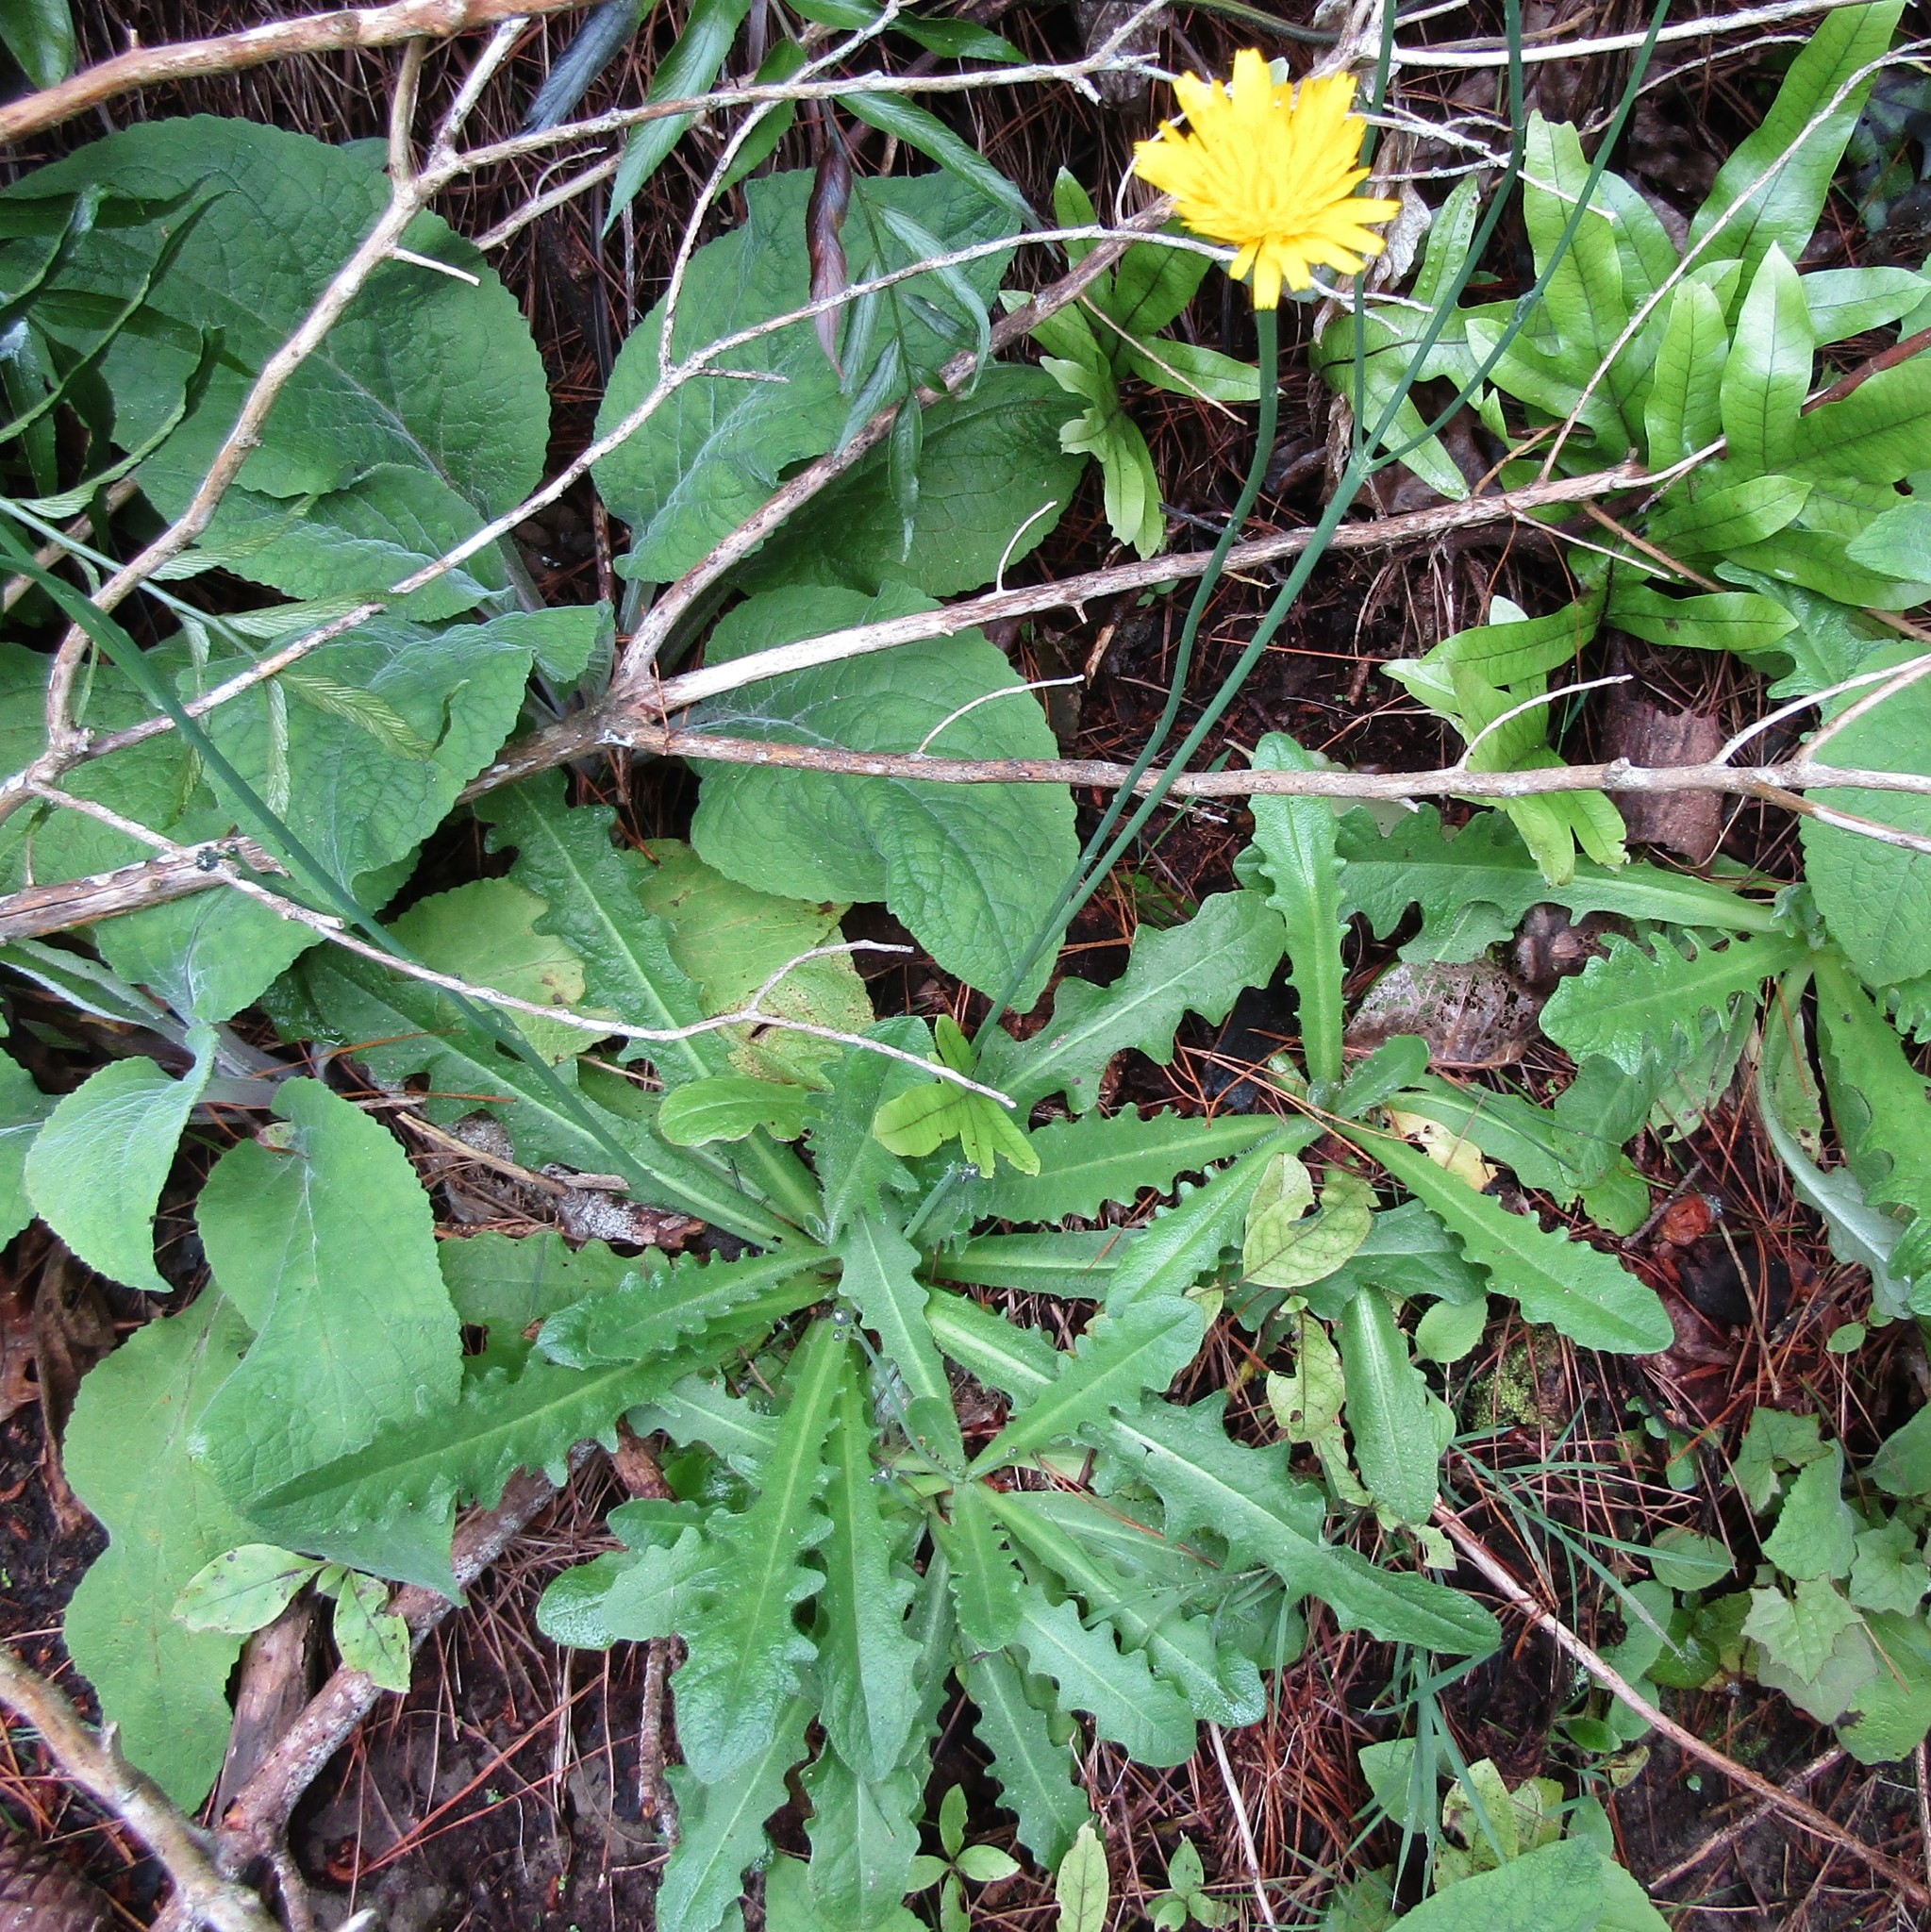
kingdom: Plantae
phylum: Tracheophyta
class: Magnoliopsida
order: Asterales
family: Asteraceae
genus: Hypochaeris
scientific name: Hypochaeris radicata
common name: Flatweed
